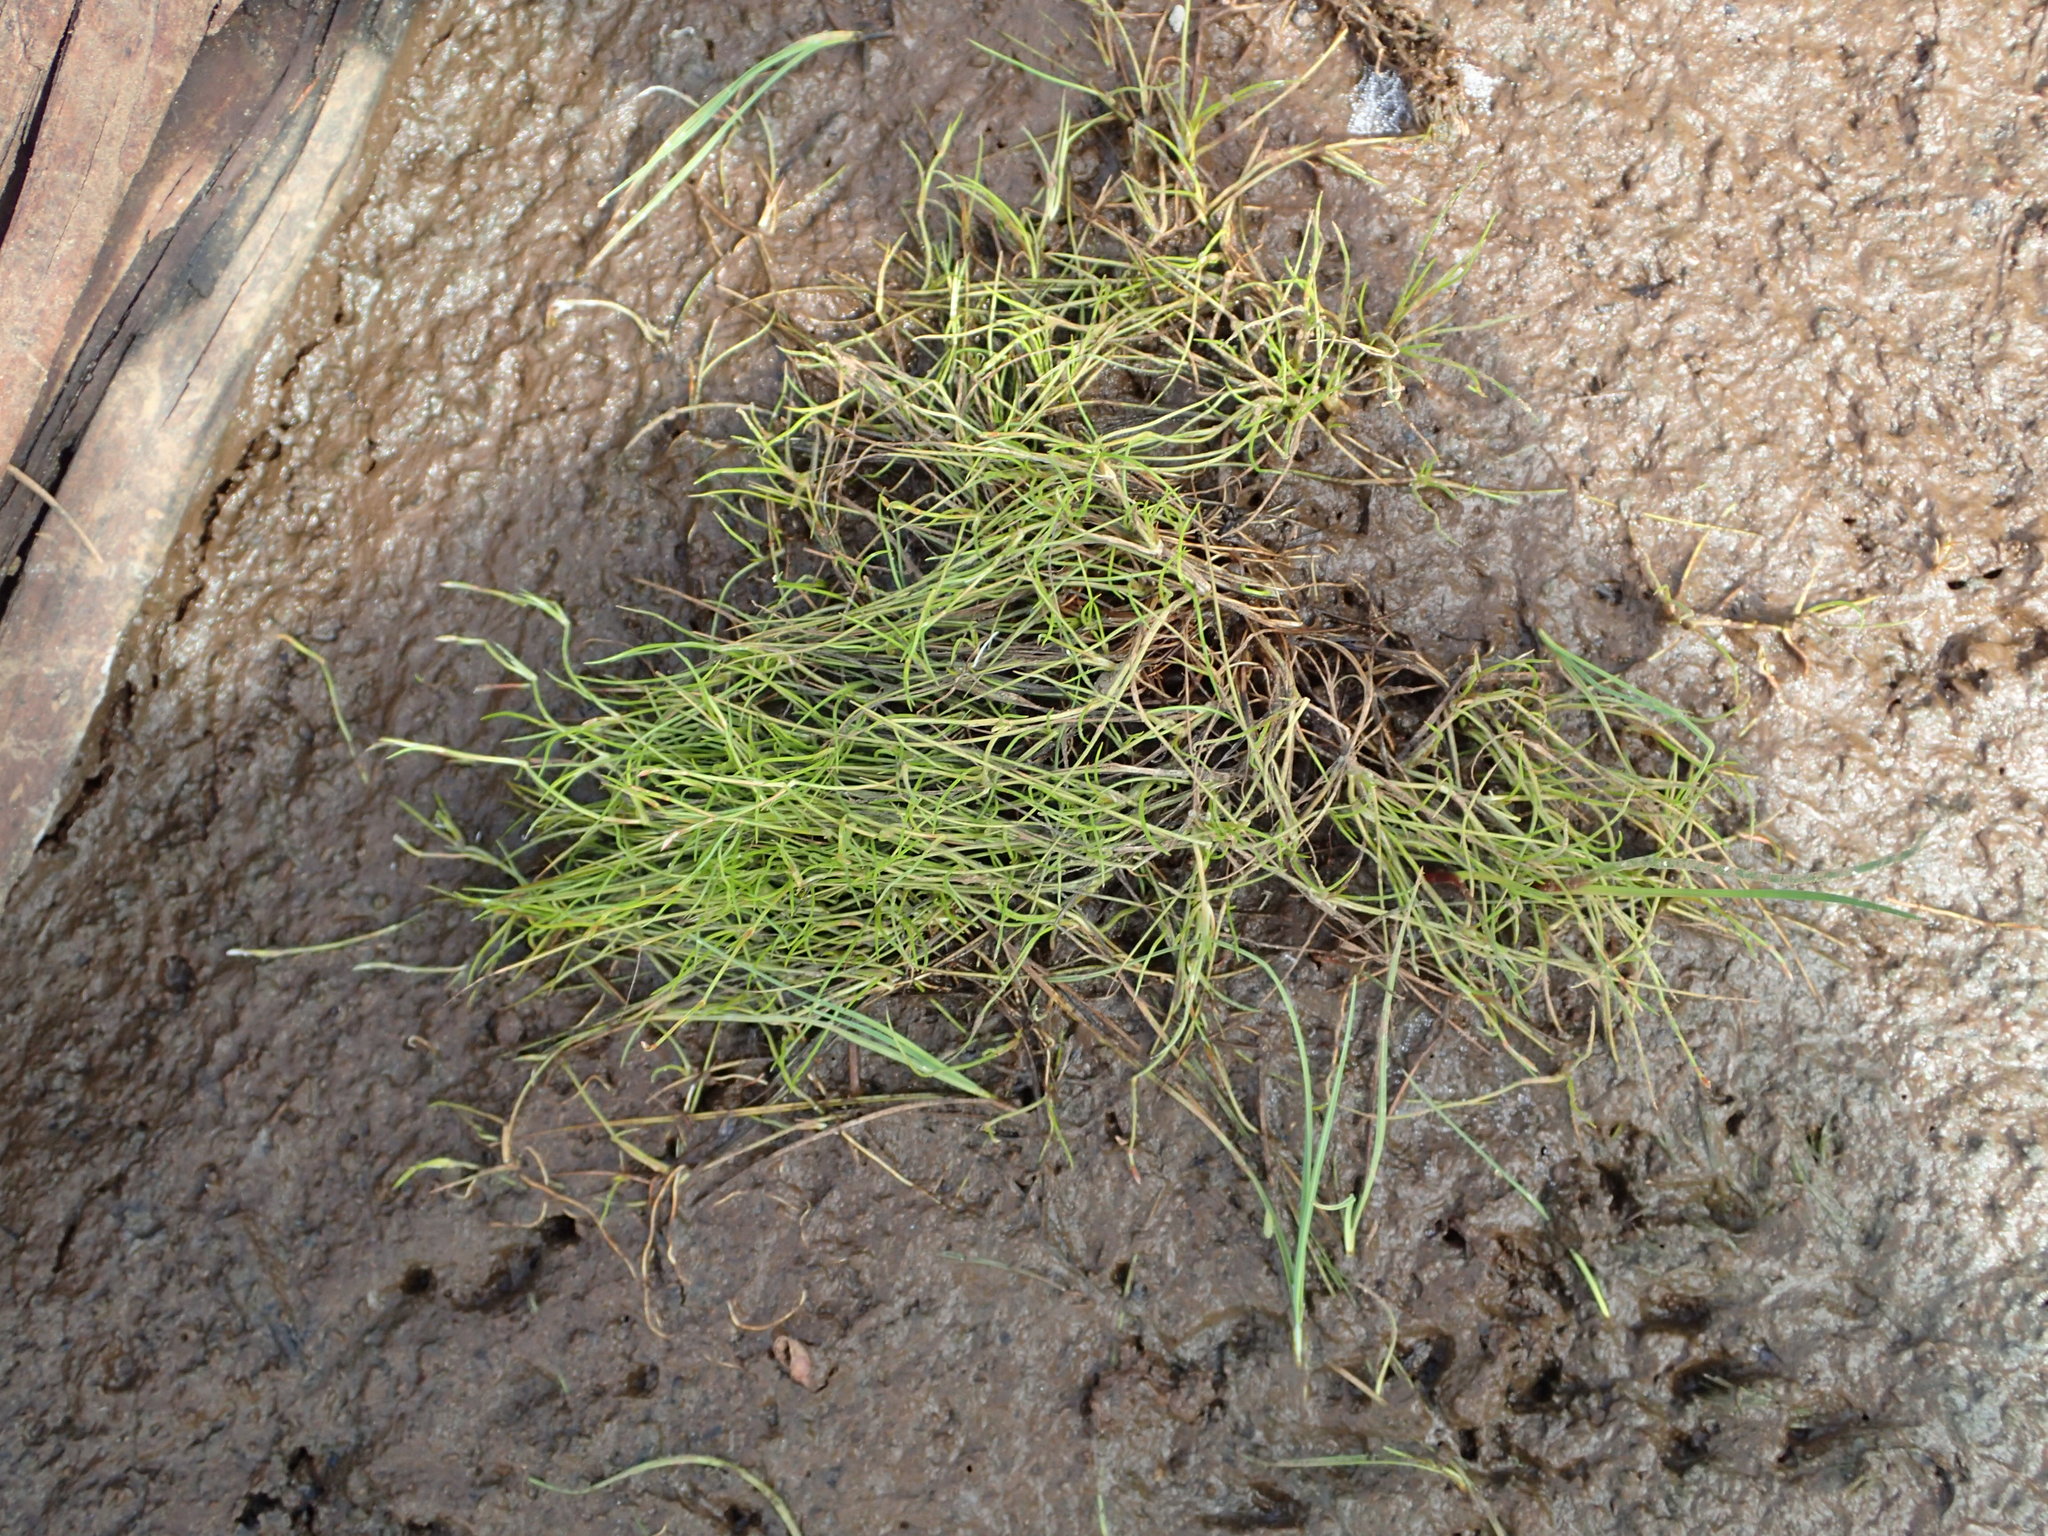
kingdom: Plantae
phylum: Tracheophyta
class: Liliopsida
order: Poales
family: Juncaceae
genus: Juncus
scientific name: Juncus subtilis
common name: Creeping rush
